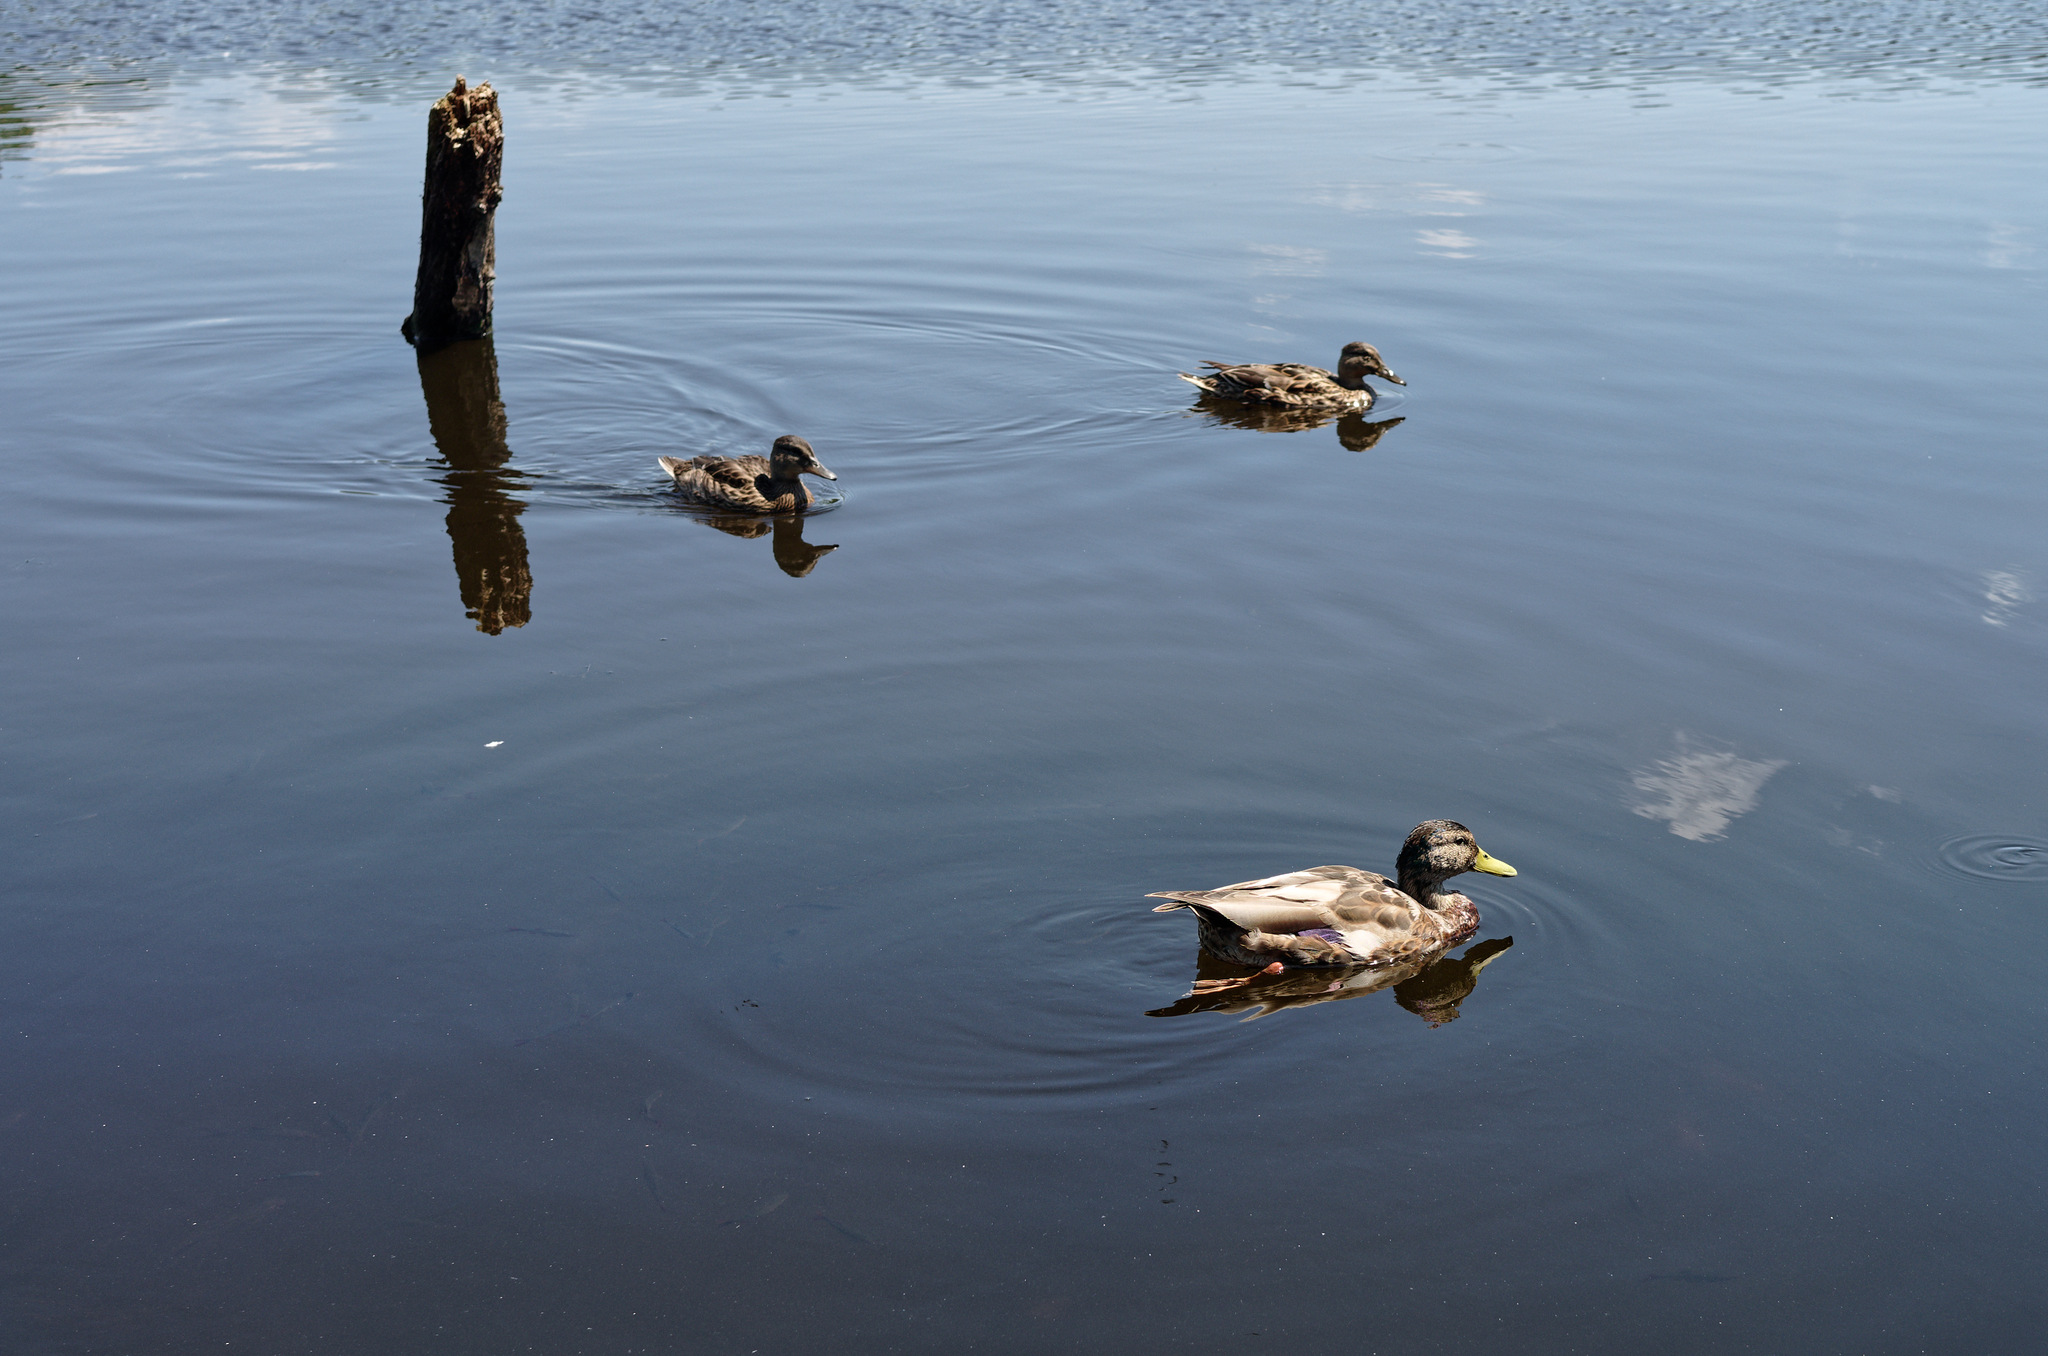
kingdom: Animalia
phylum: Chordata
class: Aves
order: Anseriformes
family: Anatidae
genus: Anas
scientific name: Anas platyrhynchos
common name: Mallard
